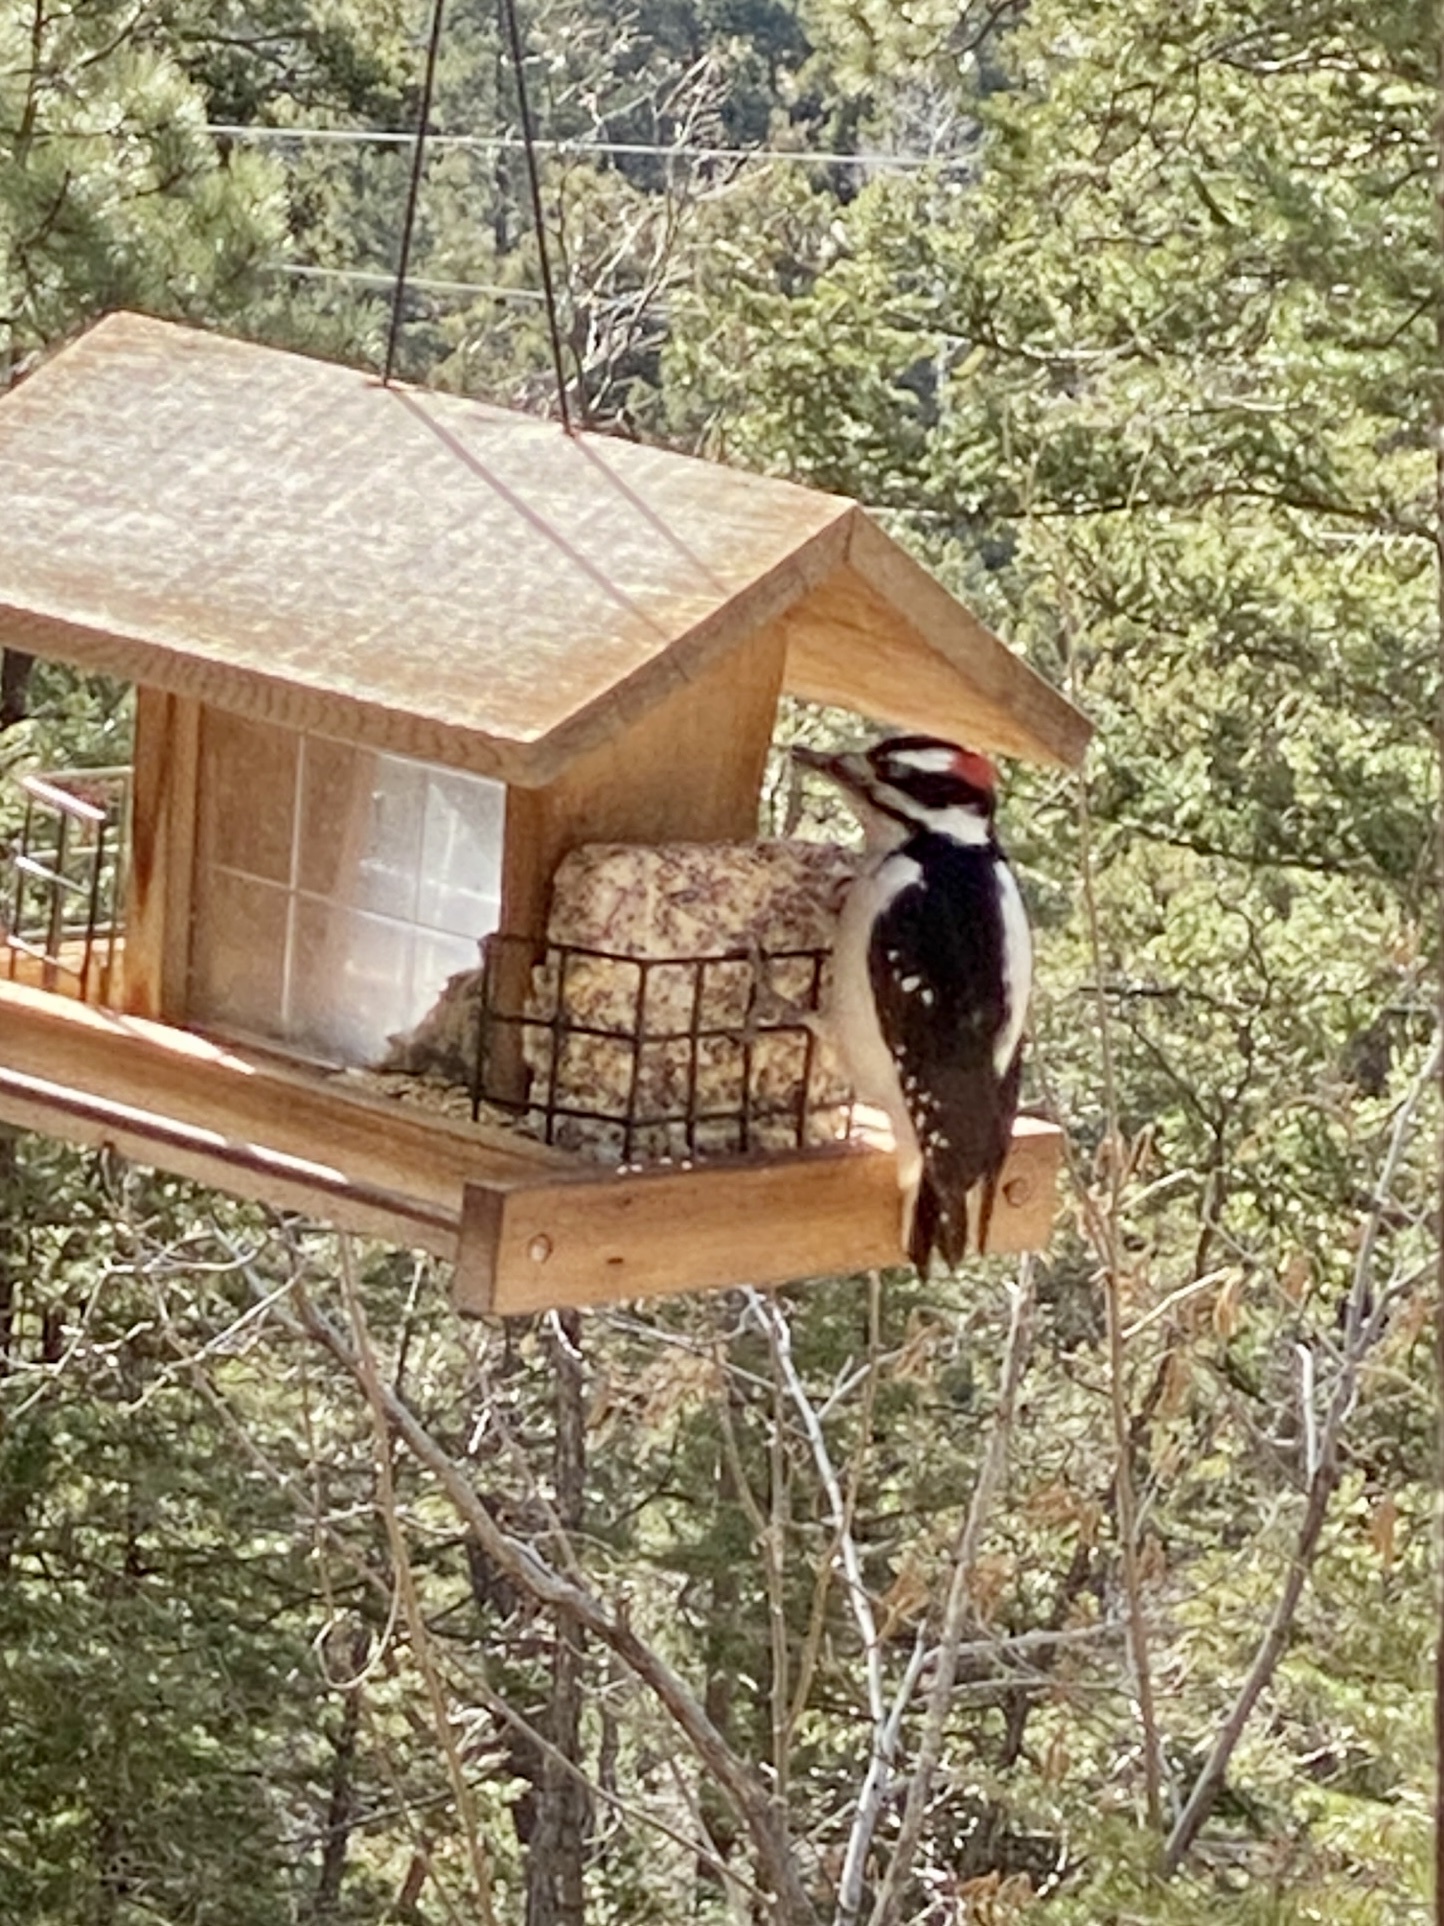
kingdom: Animalia
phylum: Chordata
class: Aves
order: Piciformes
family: Picidae
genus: Leuconotopicus
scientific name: Leuconotopicus villosus
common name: Hairy woodpecker
